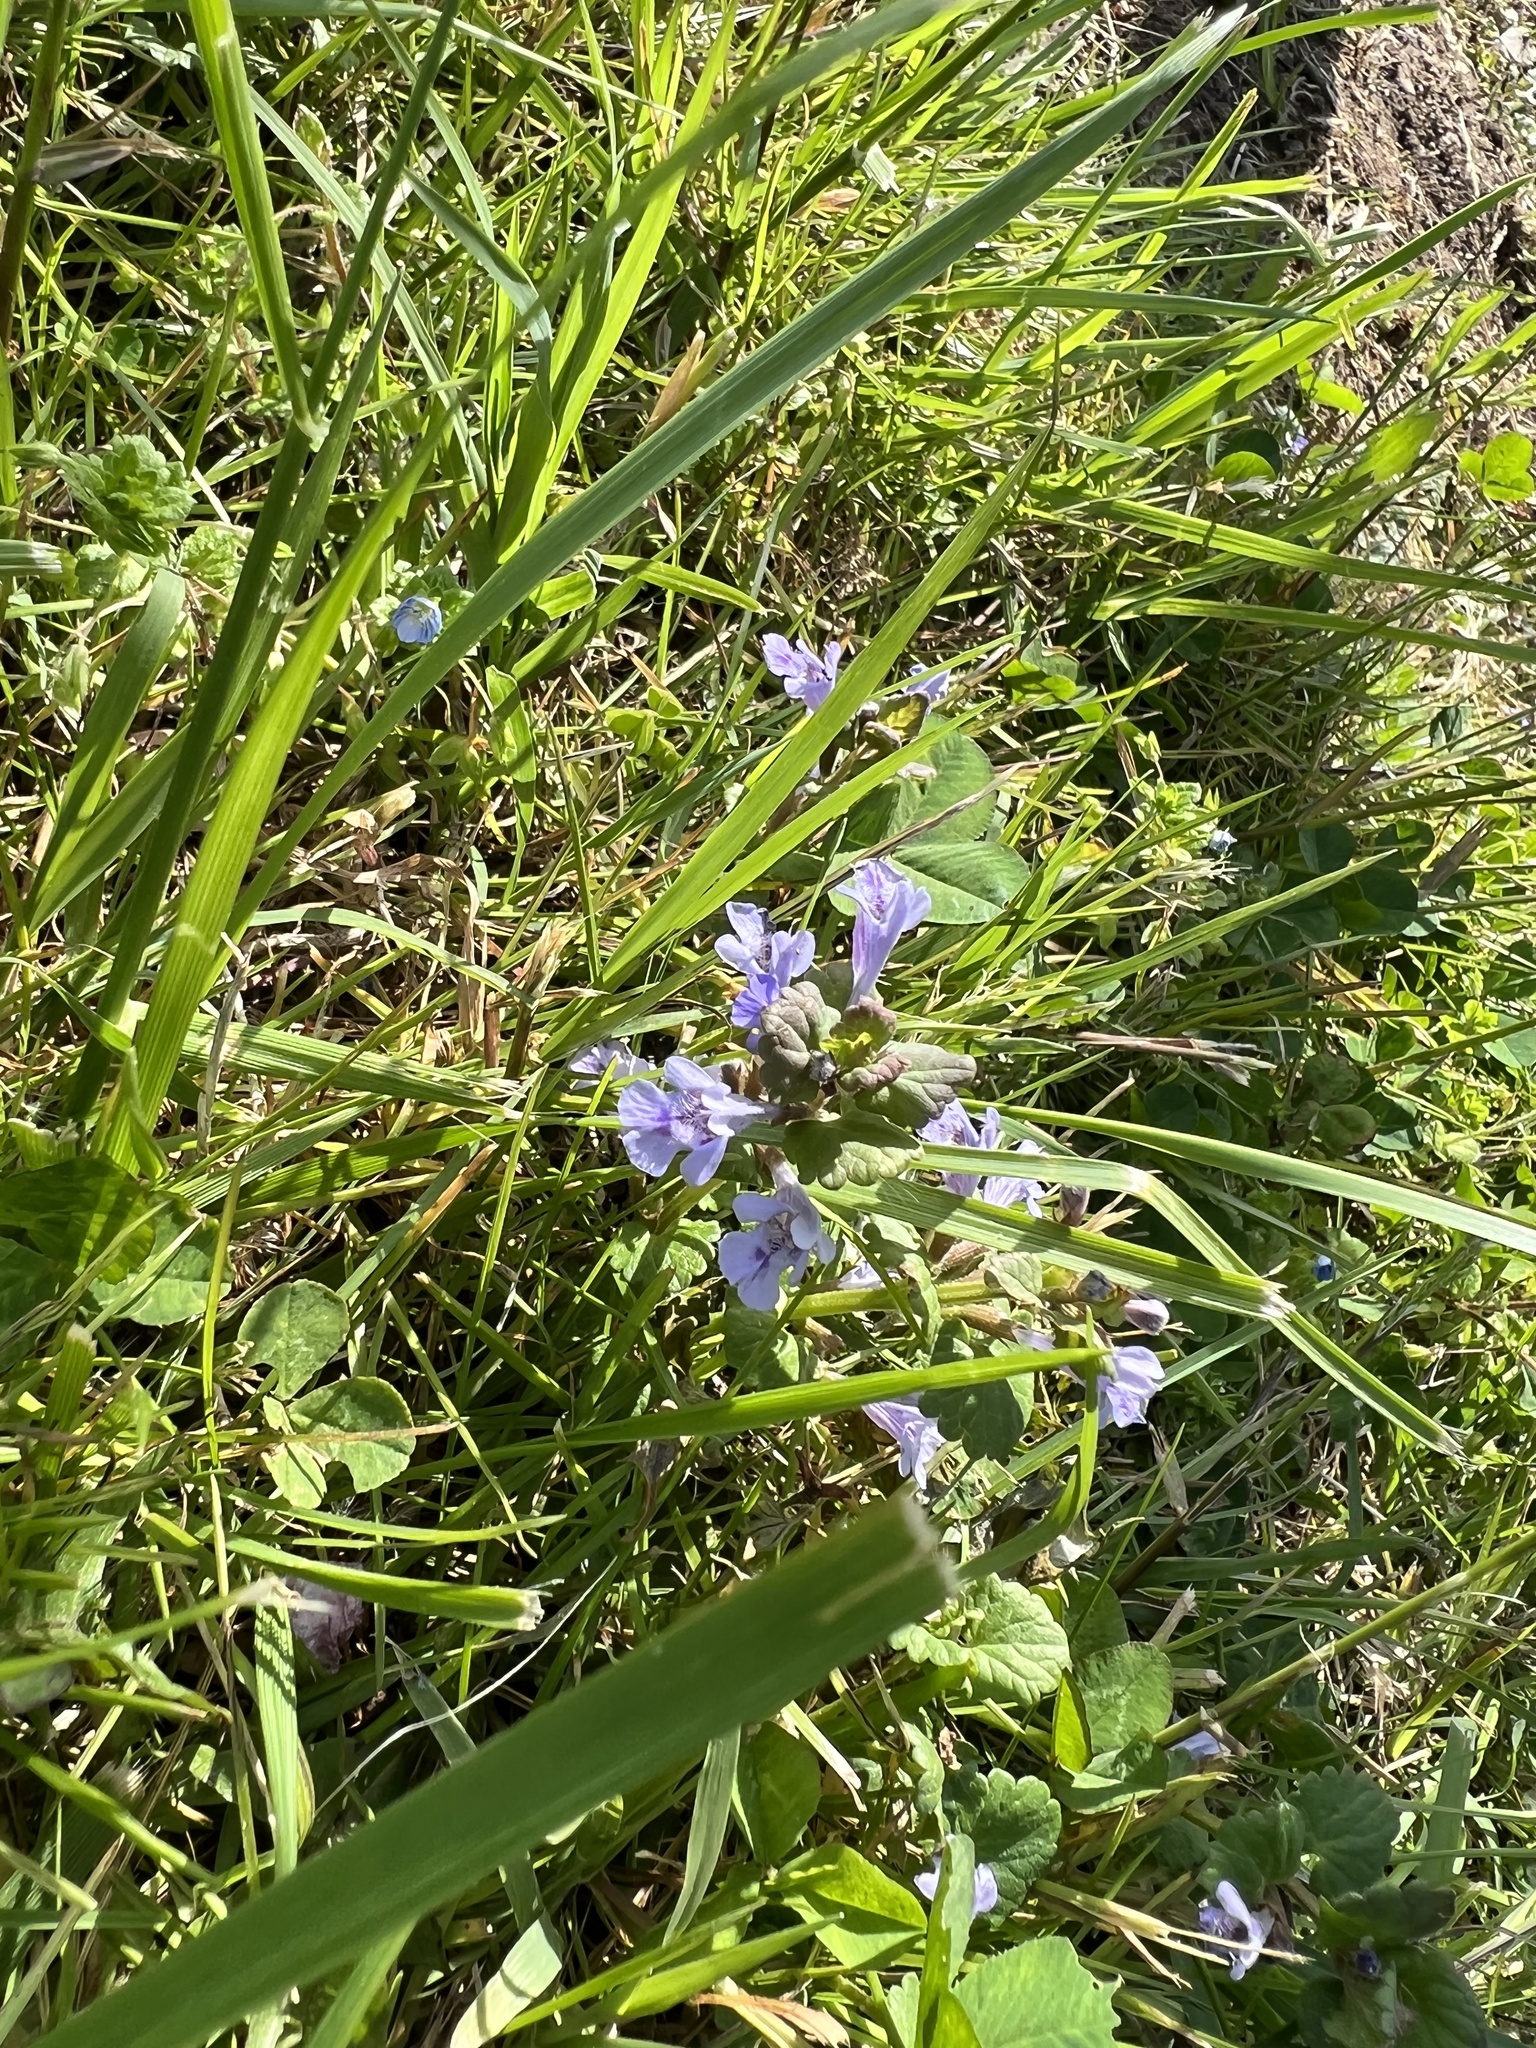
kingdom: Plantae
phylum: Tracheophyta
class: Magnoliopsida
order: Lamiales
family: Lamiaceae
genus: Glechoma
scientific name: Glechoma hederacea
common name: Ground ivy
